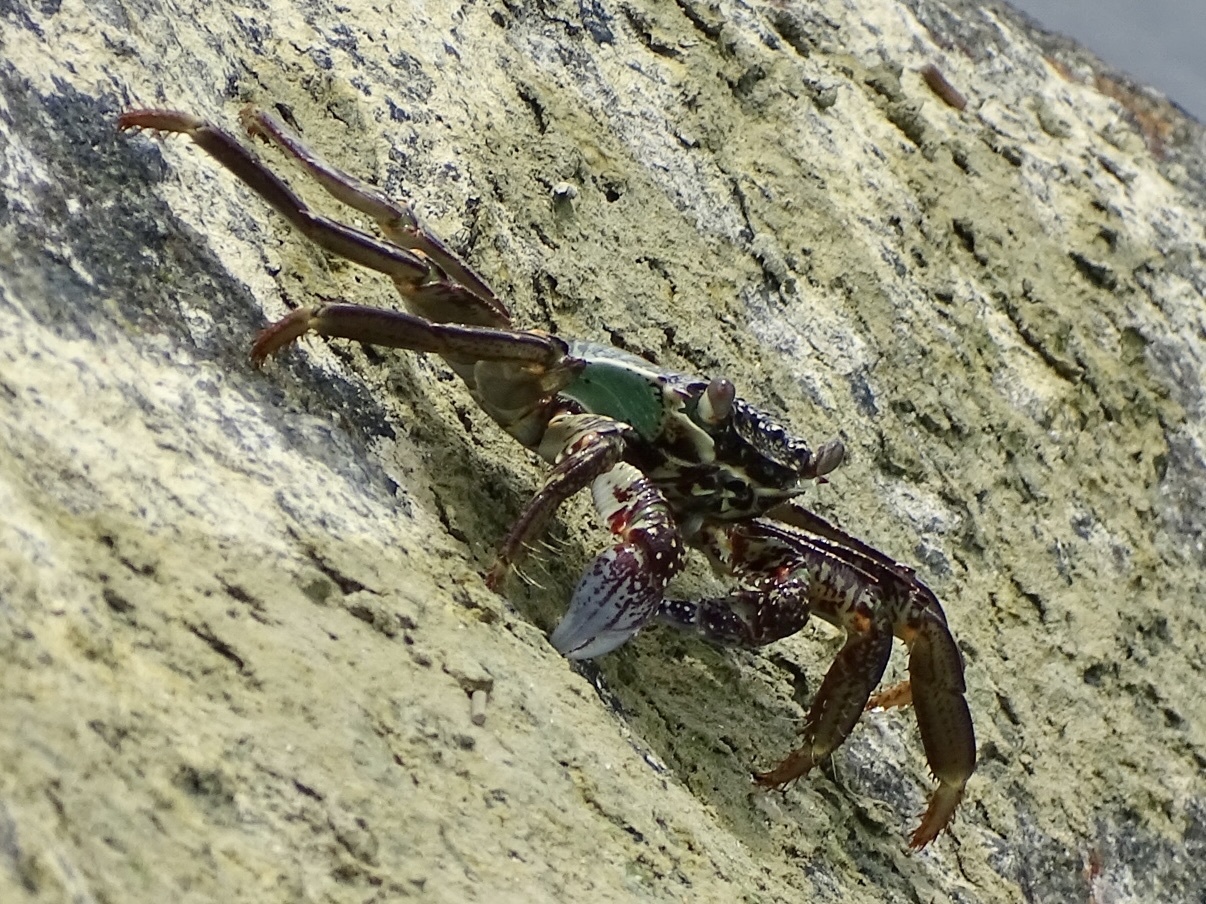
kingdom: Animalia
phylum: Arthropoda
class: Malacostraca
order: Decapoda
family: Grapsidae
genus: Grapsus
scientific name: Grapsus albolineatus
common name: Mottled lightfoot crab
